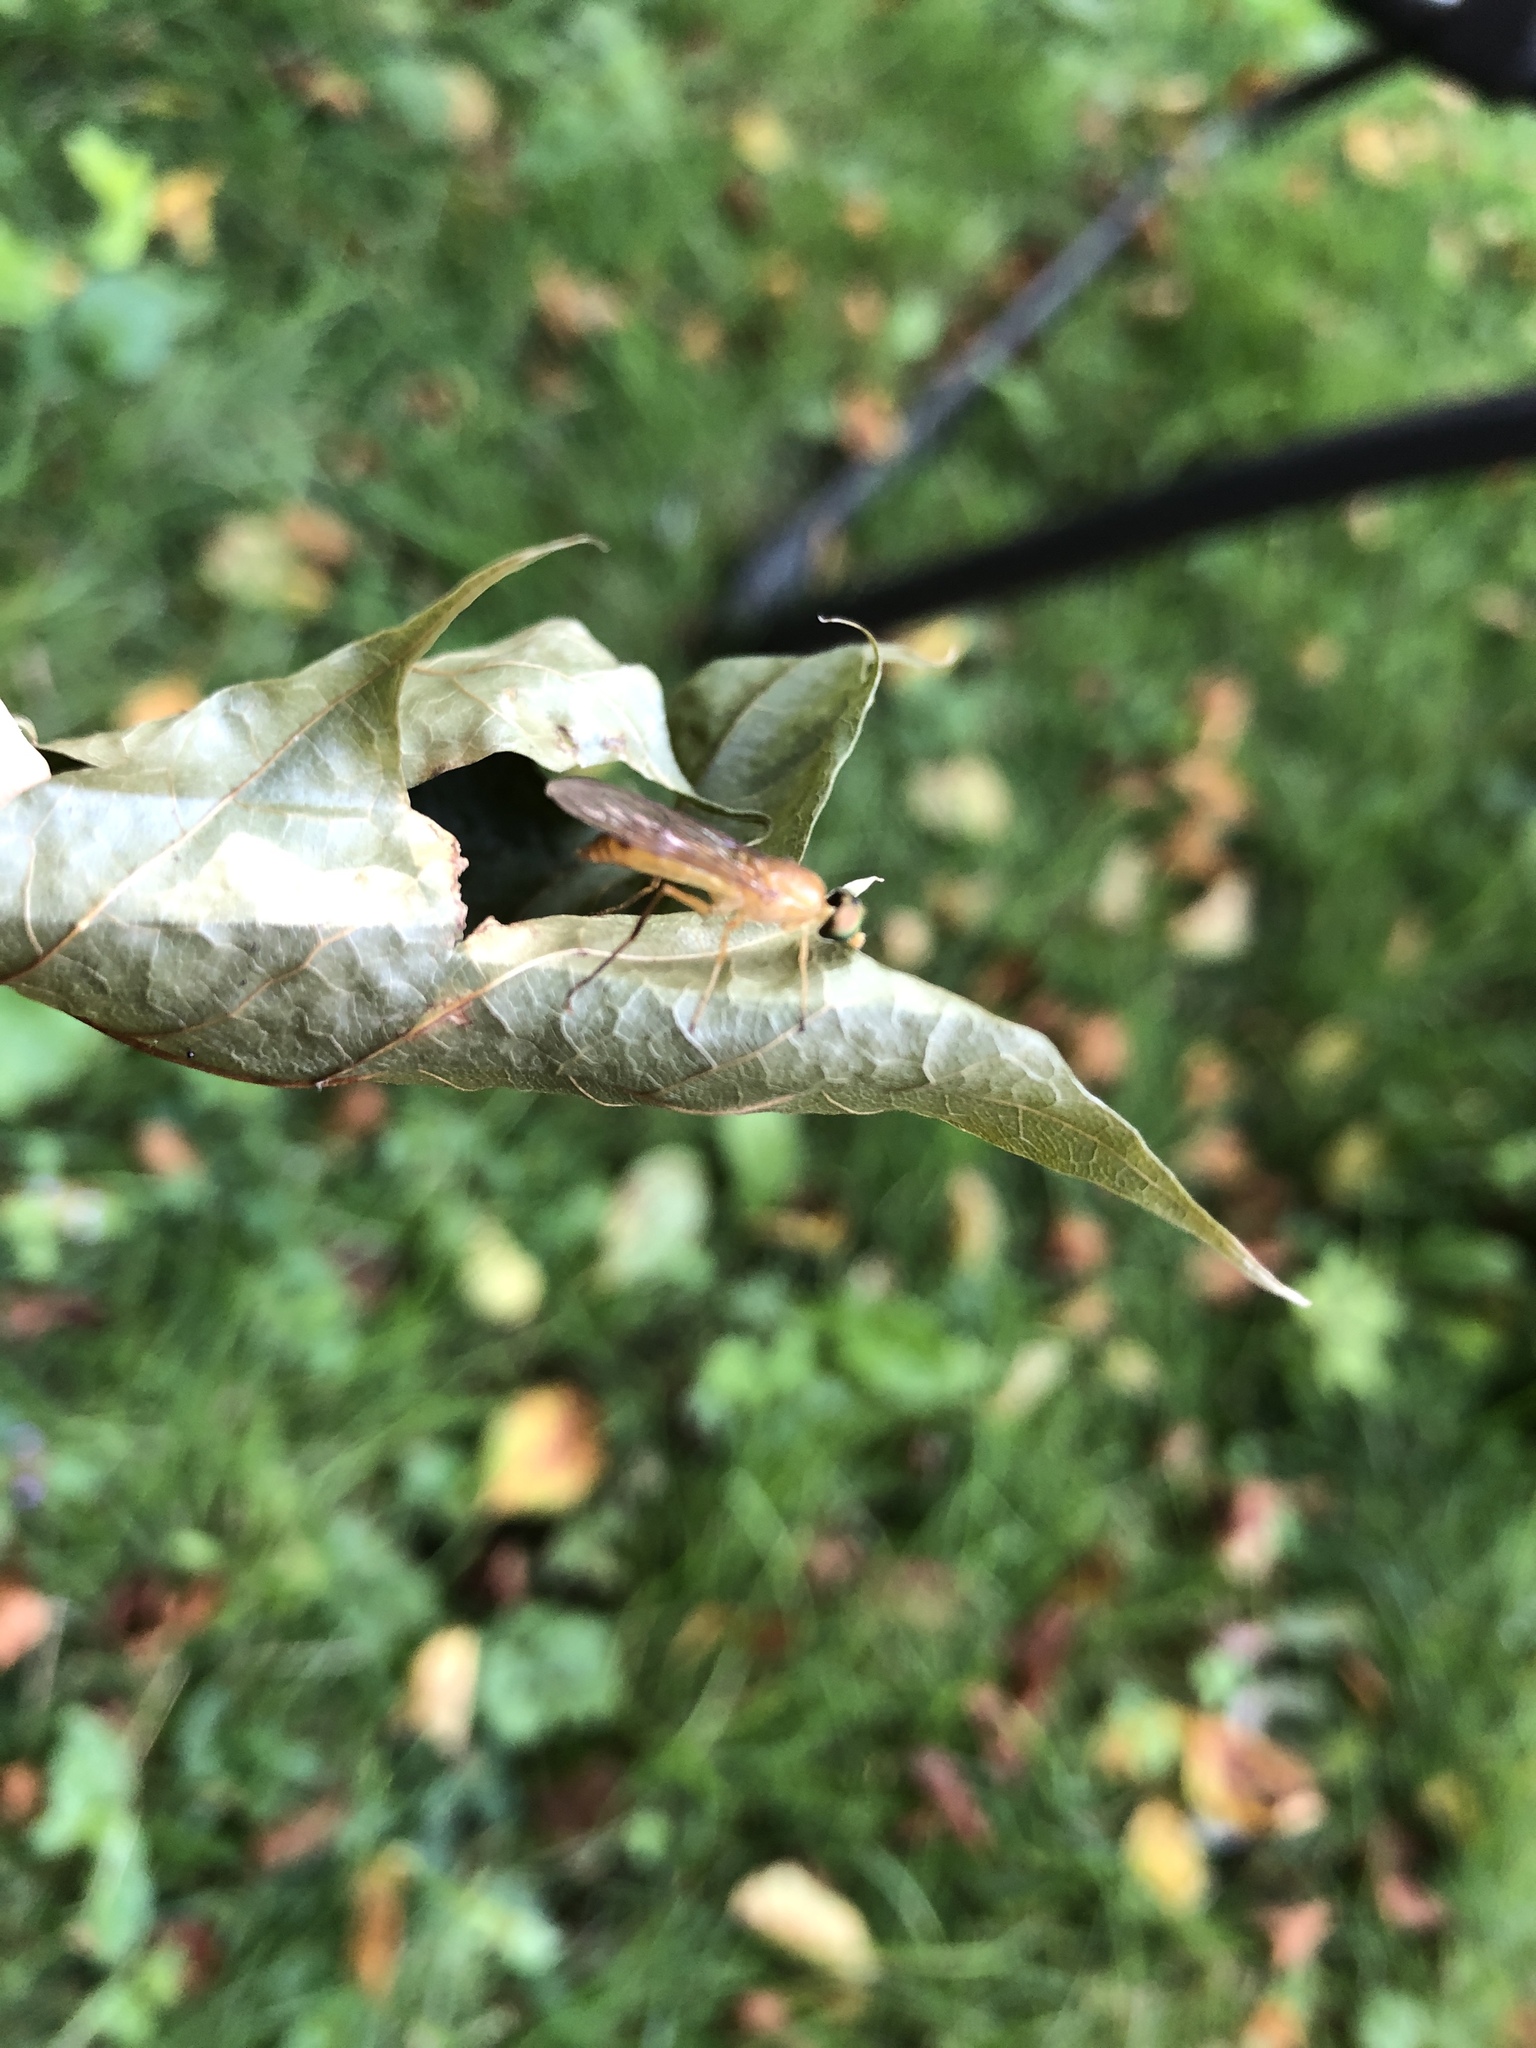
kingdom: Animalia
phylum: Arthropoda
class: Insecta
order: Diptera
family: Stratiomyidae
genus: Ptecticus
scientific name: Ptecticus trivittatus
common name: Compost fly
